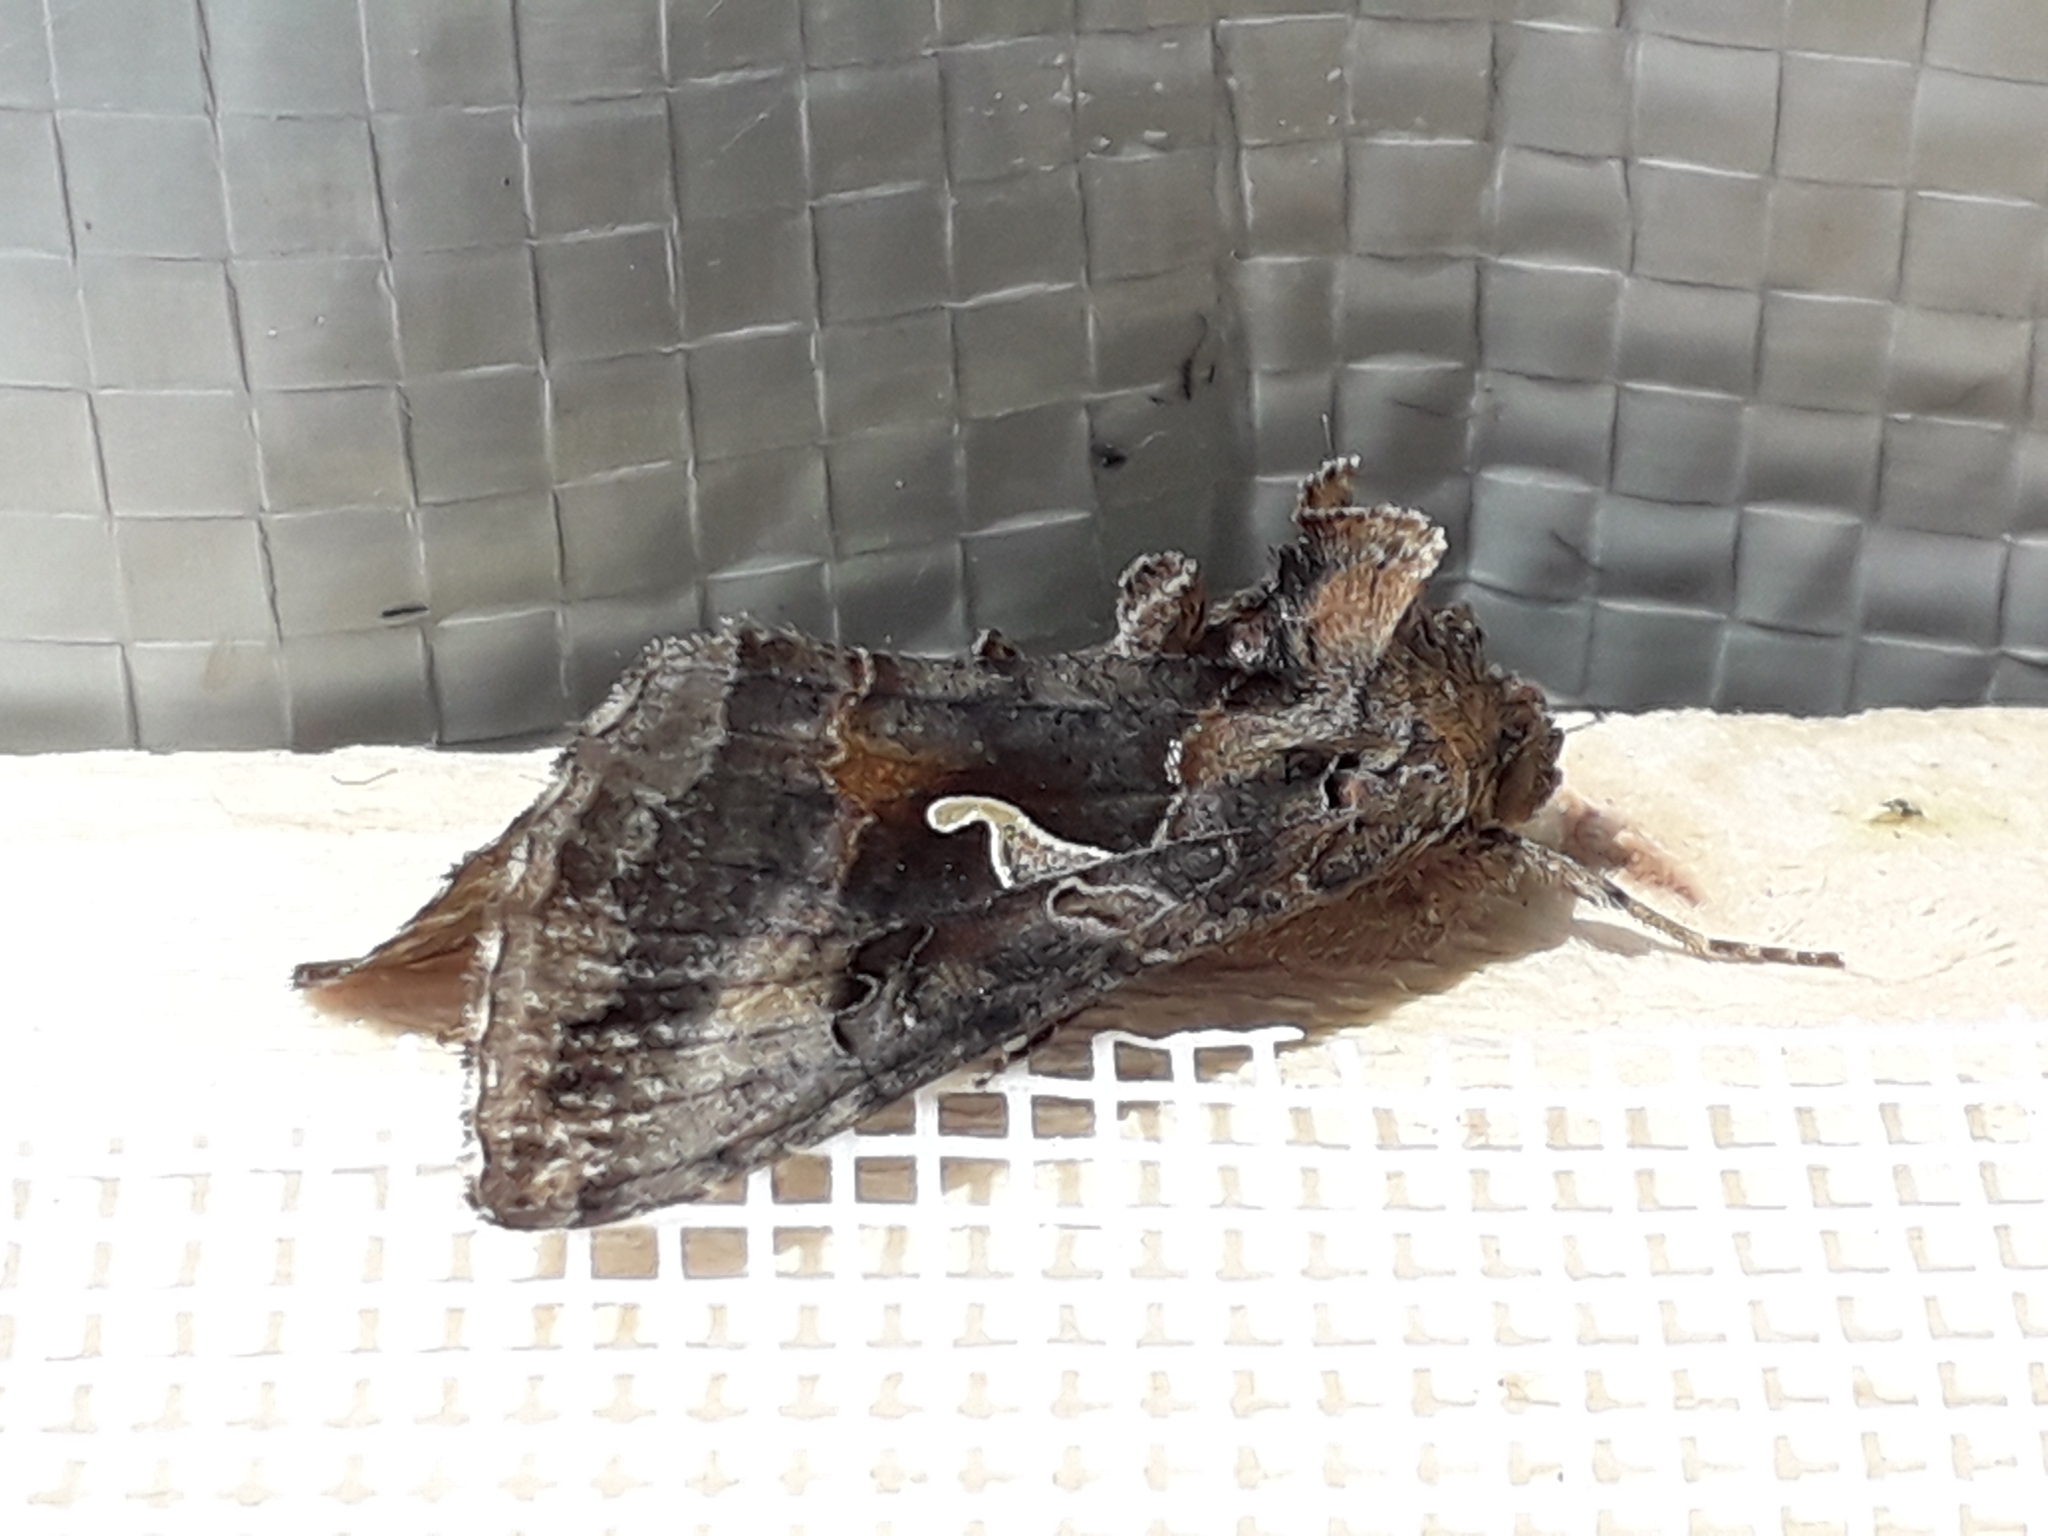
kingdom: Animalia
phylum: Arthropoda
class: Insecta
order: Lepidoptera
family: Noctuidae
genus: Autographa
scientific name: Autographa gamma
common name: Silver y
